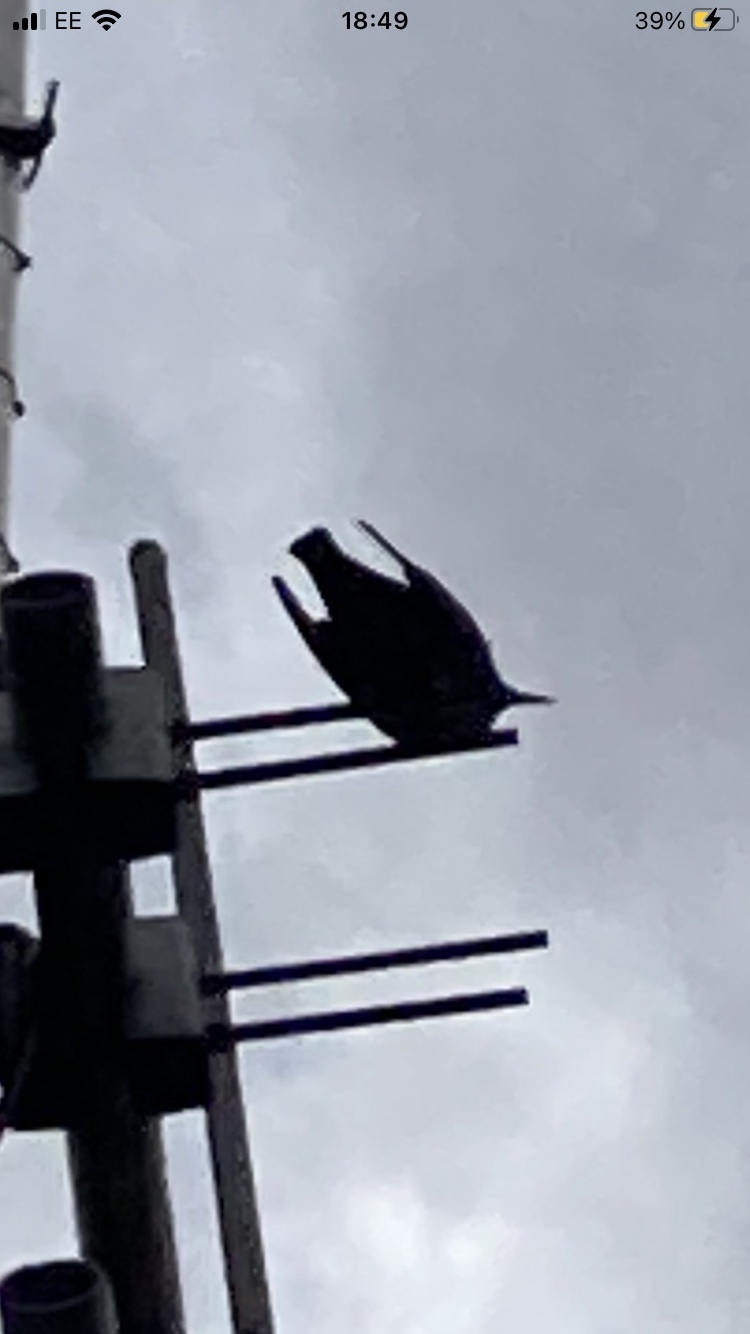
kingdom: Animalia
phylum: Chordata
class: Aves
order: Passeriformes
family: Sturnidae
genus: Sturnus
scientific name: Sturnus vulgaris
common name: Common starling
